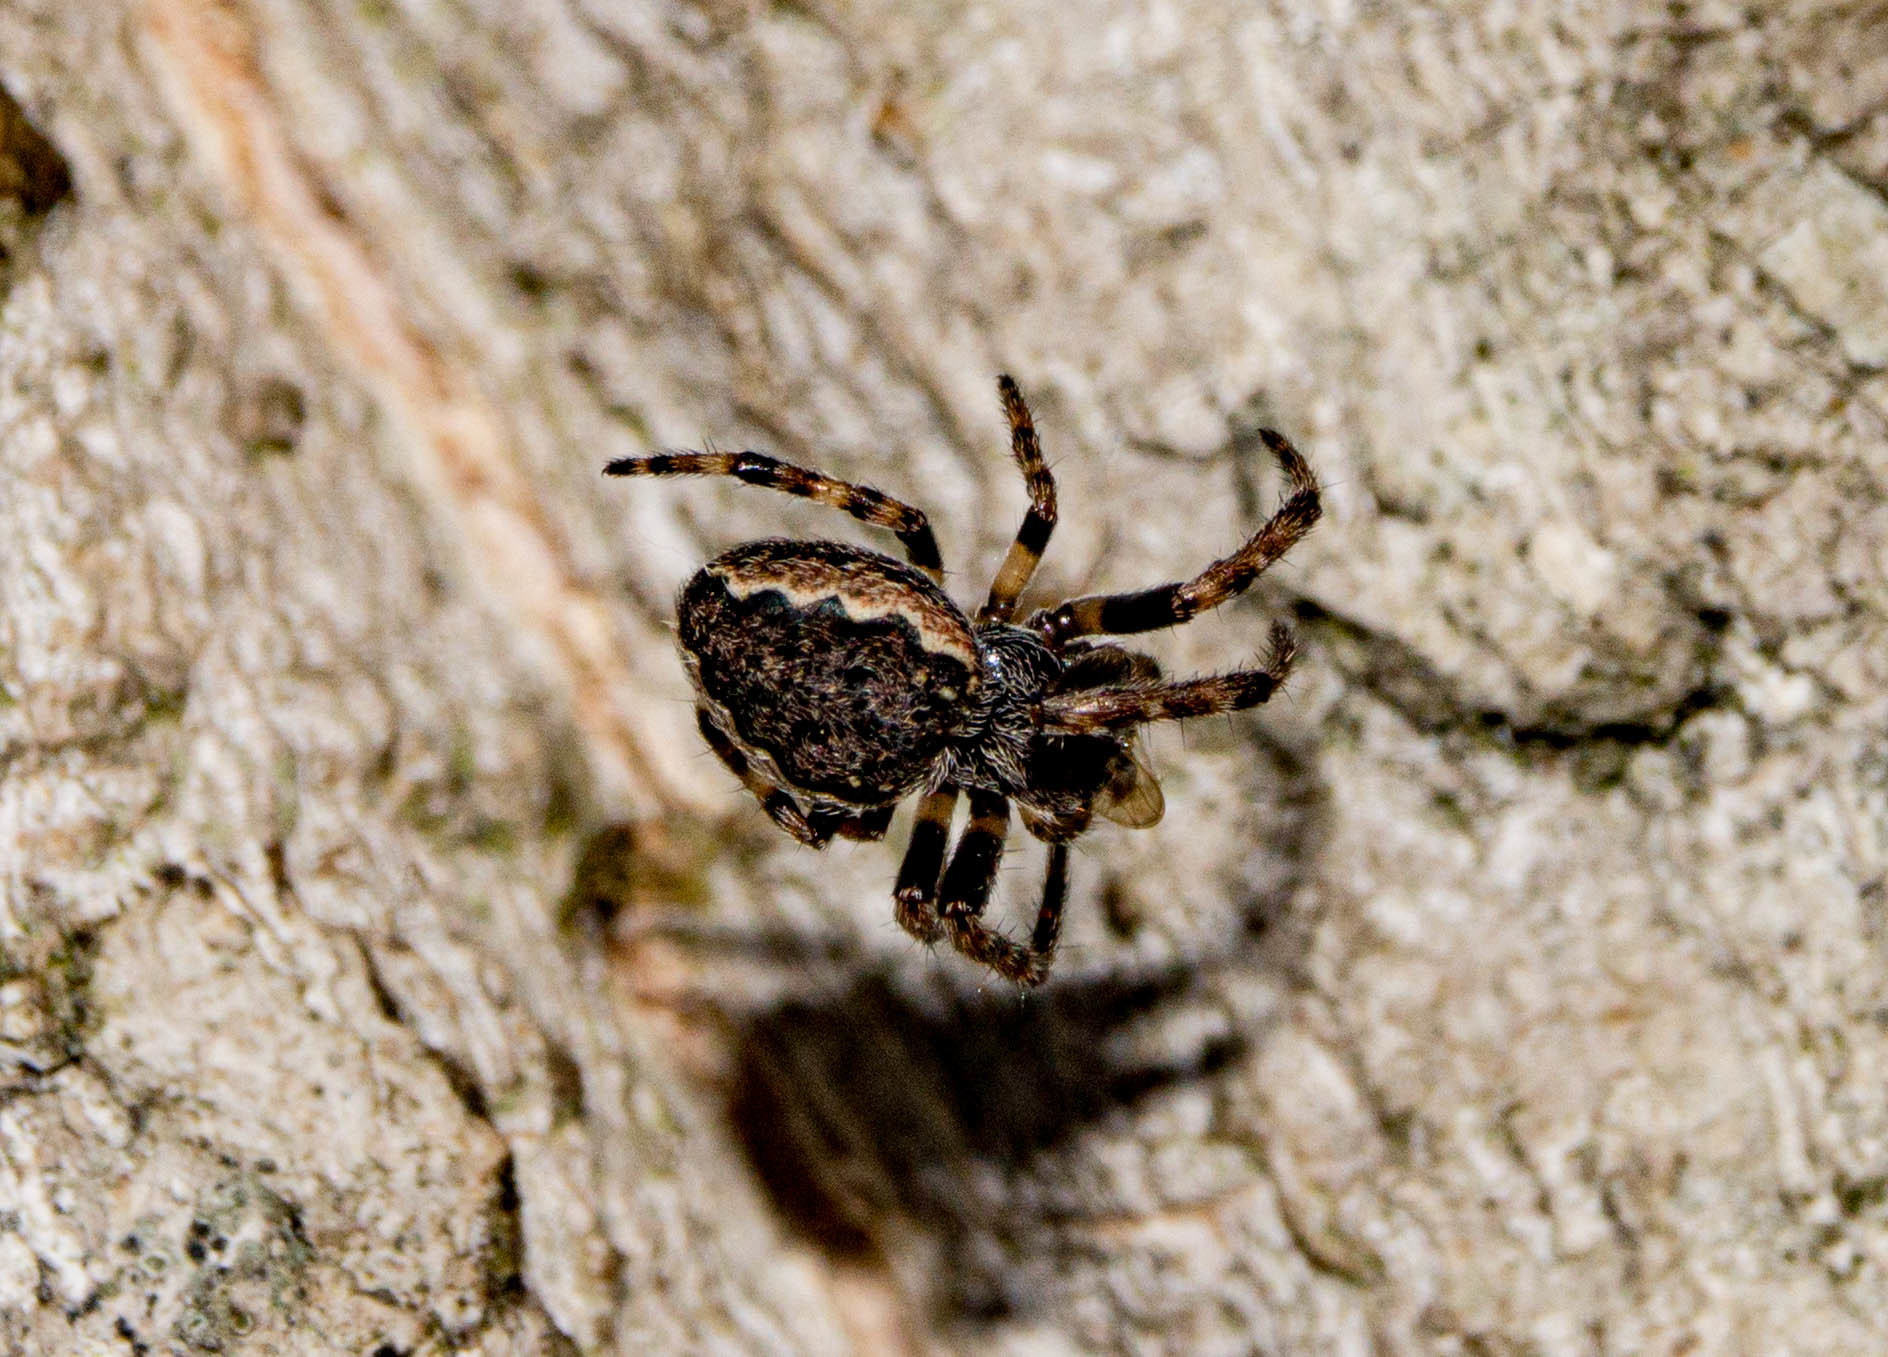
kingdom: Animalia
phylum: Arthropoda
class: Arachnida
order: Araneae
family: Araneidae
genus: Nuctenea
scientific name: Nuctenea umbratica
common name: Toad spider
